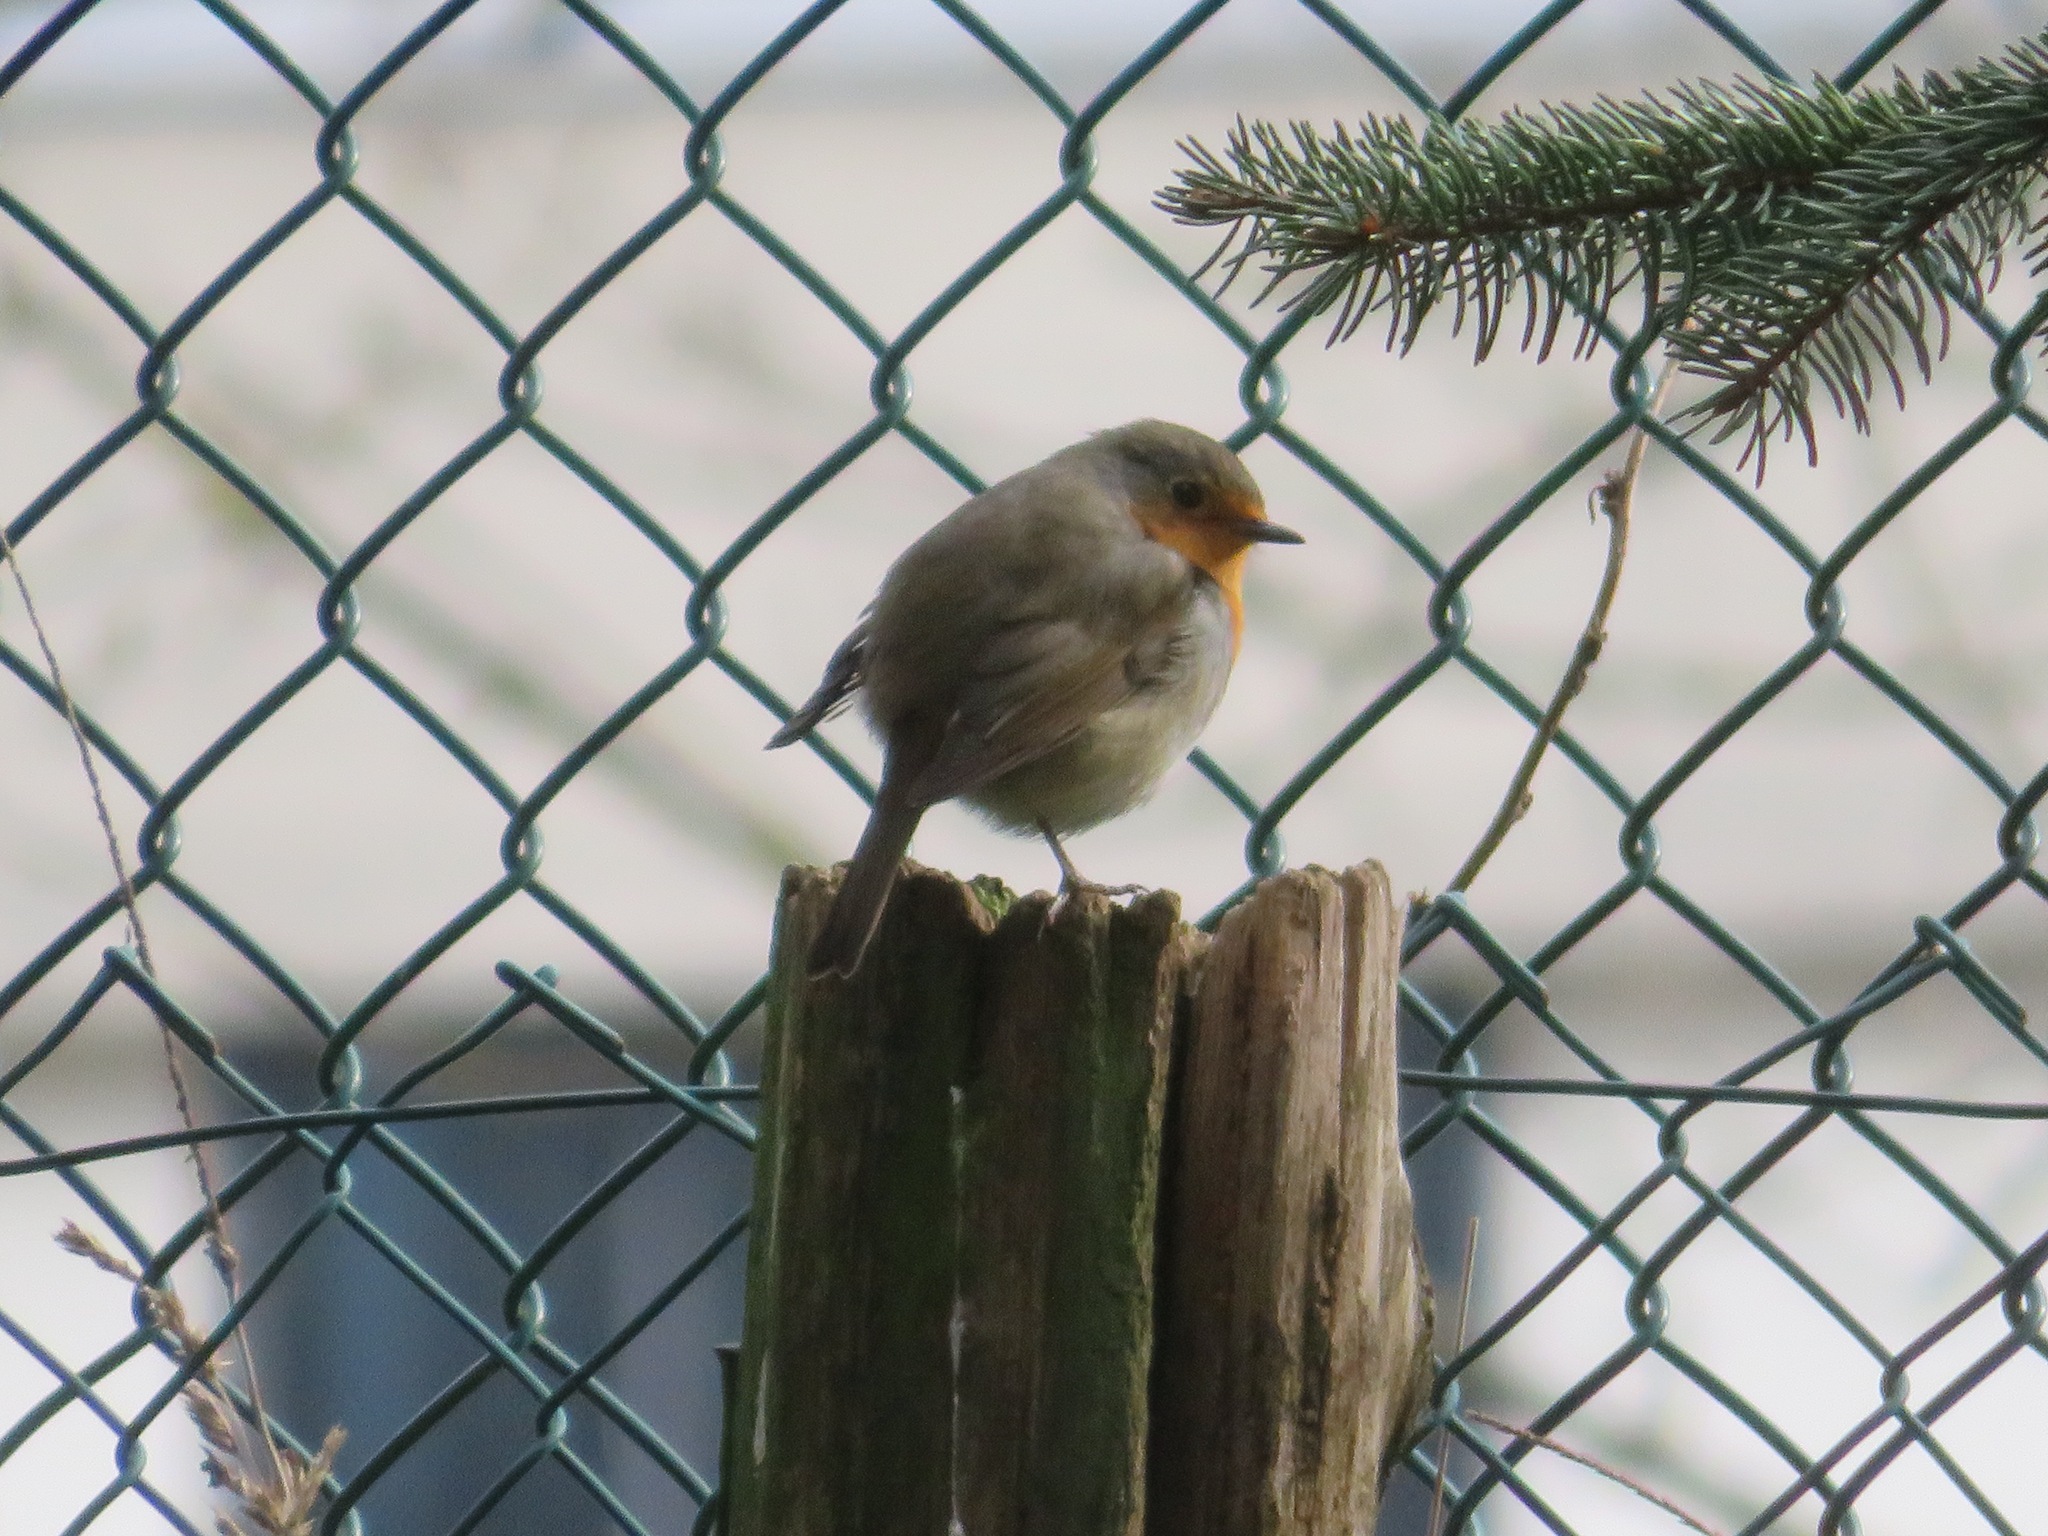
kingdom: Animalia
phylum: Chordata
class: Aves
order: Passeriformes
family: Muscicapidae
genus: Erithacus
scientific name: Erithacus rubecula
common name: European robin
